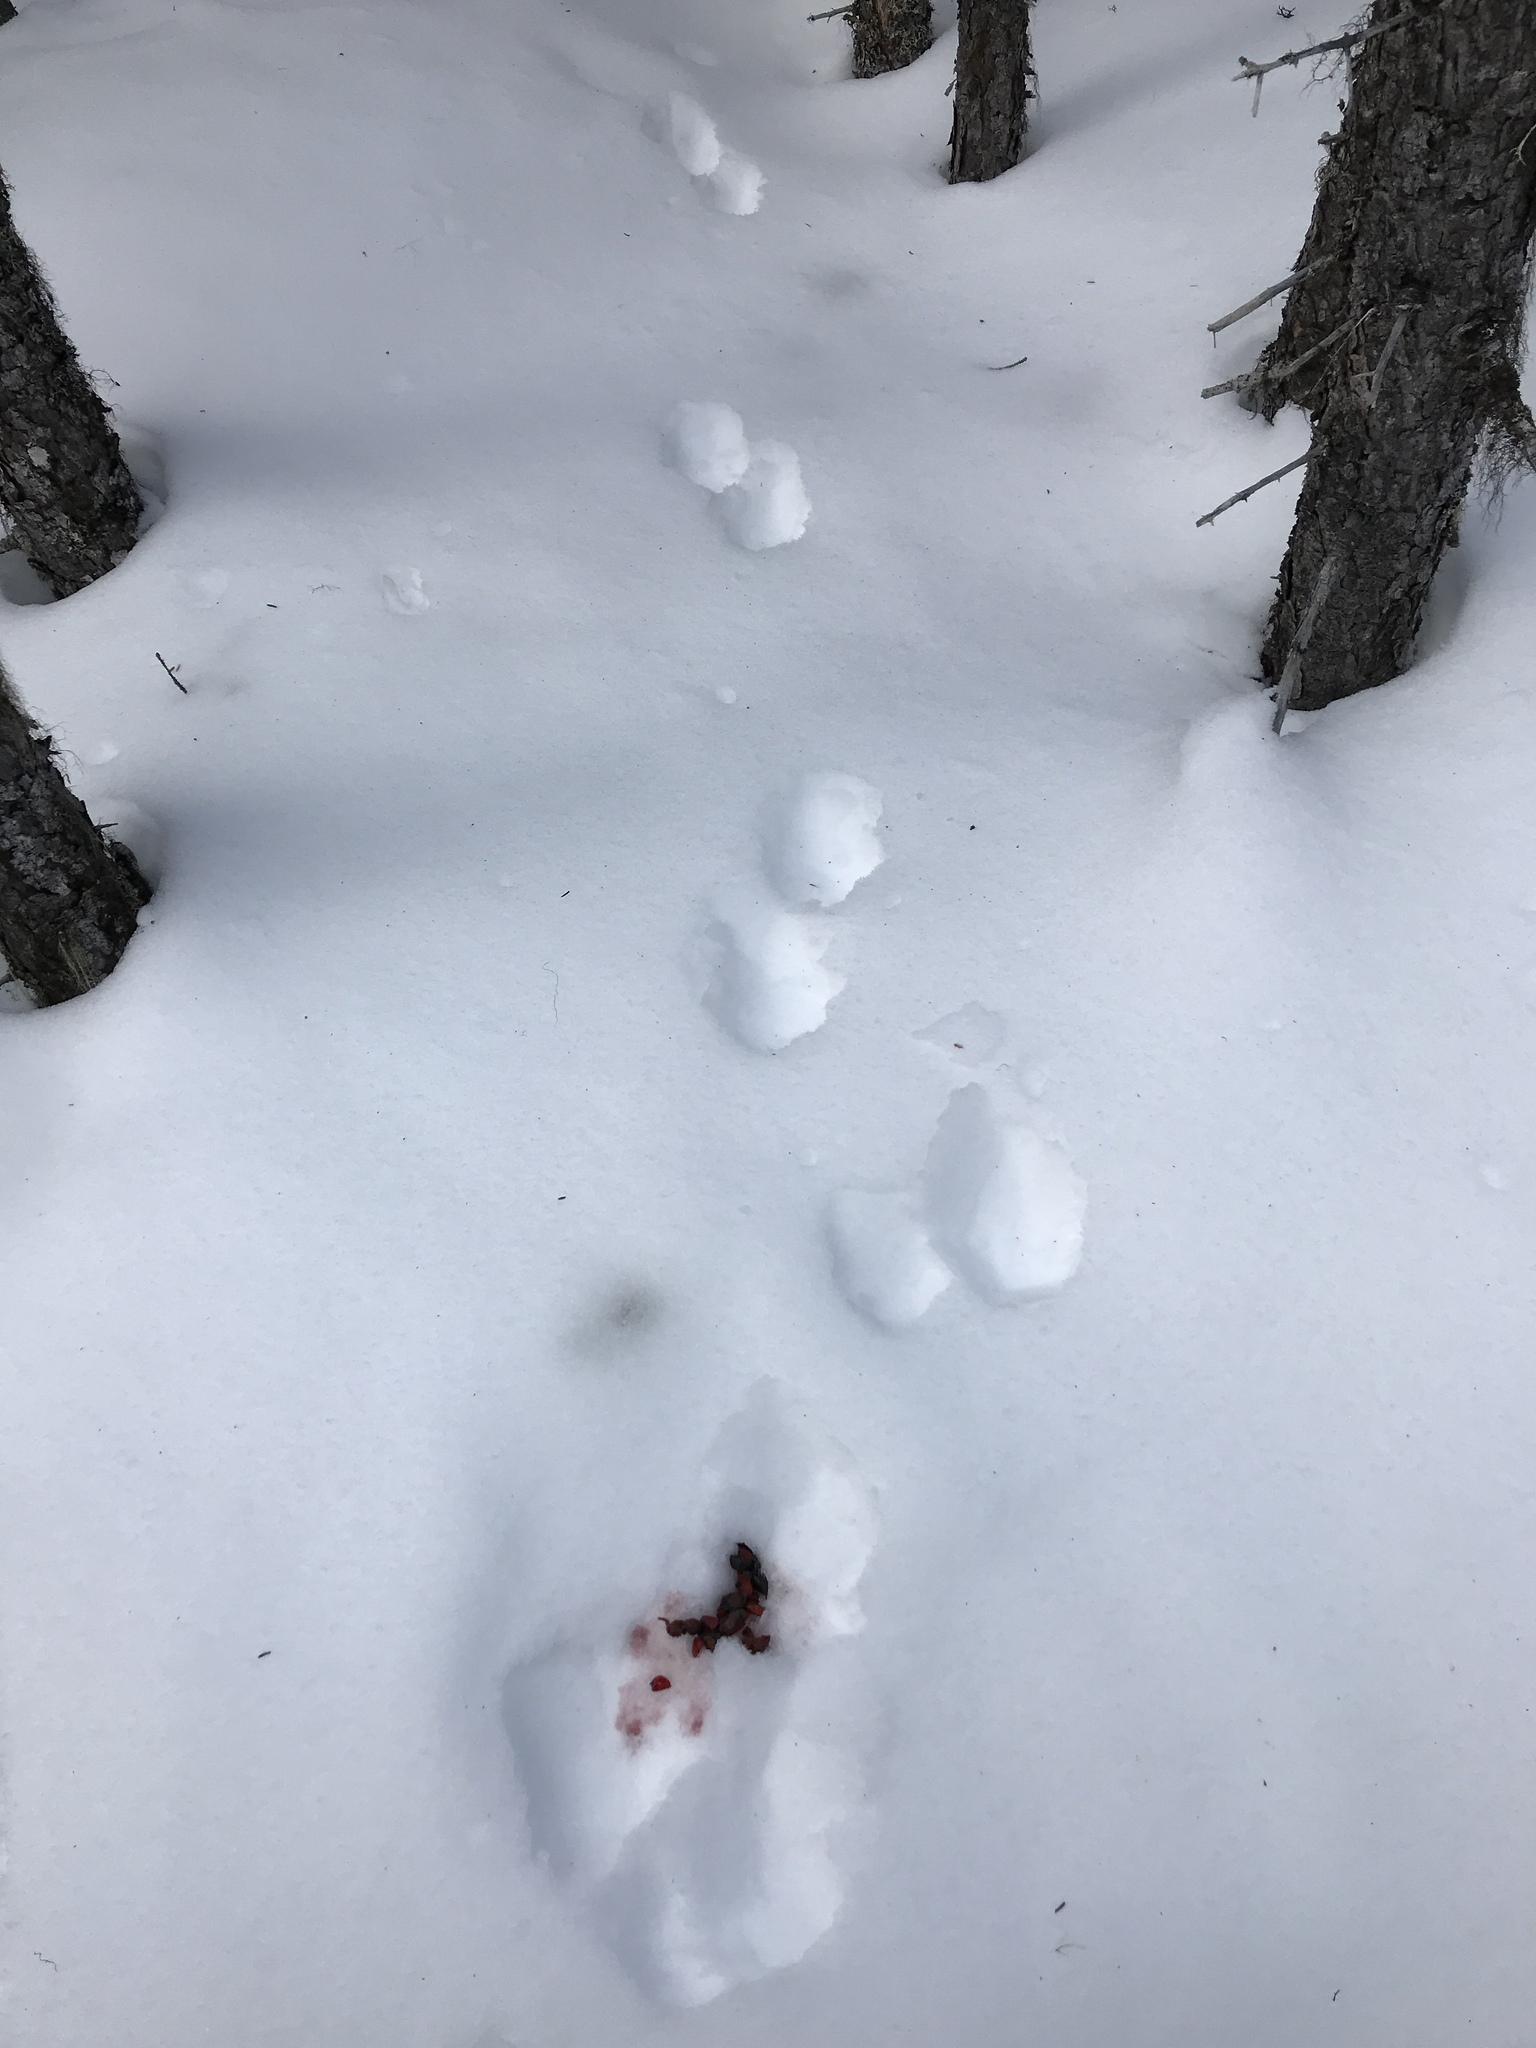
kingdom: Animalia
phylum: Chordata
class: Mammalia
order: Carnivora
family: Mustelidae
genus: Martes
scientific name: Martes americana
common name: American marten
